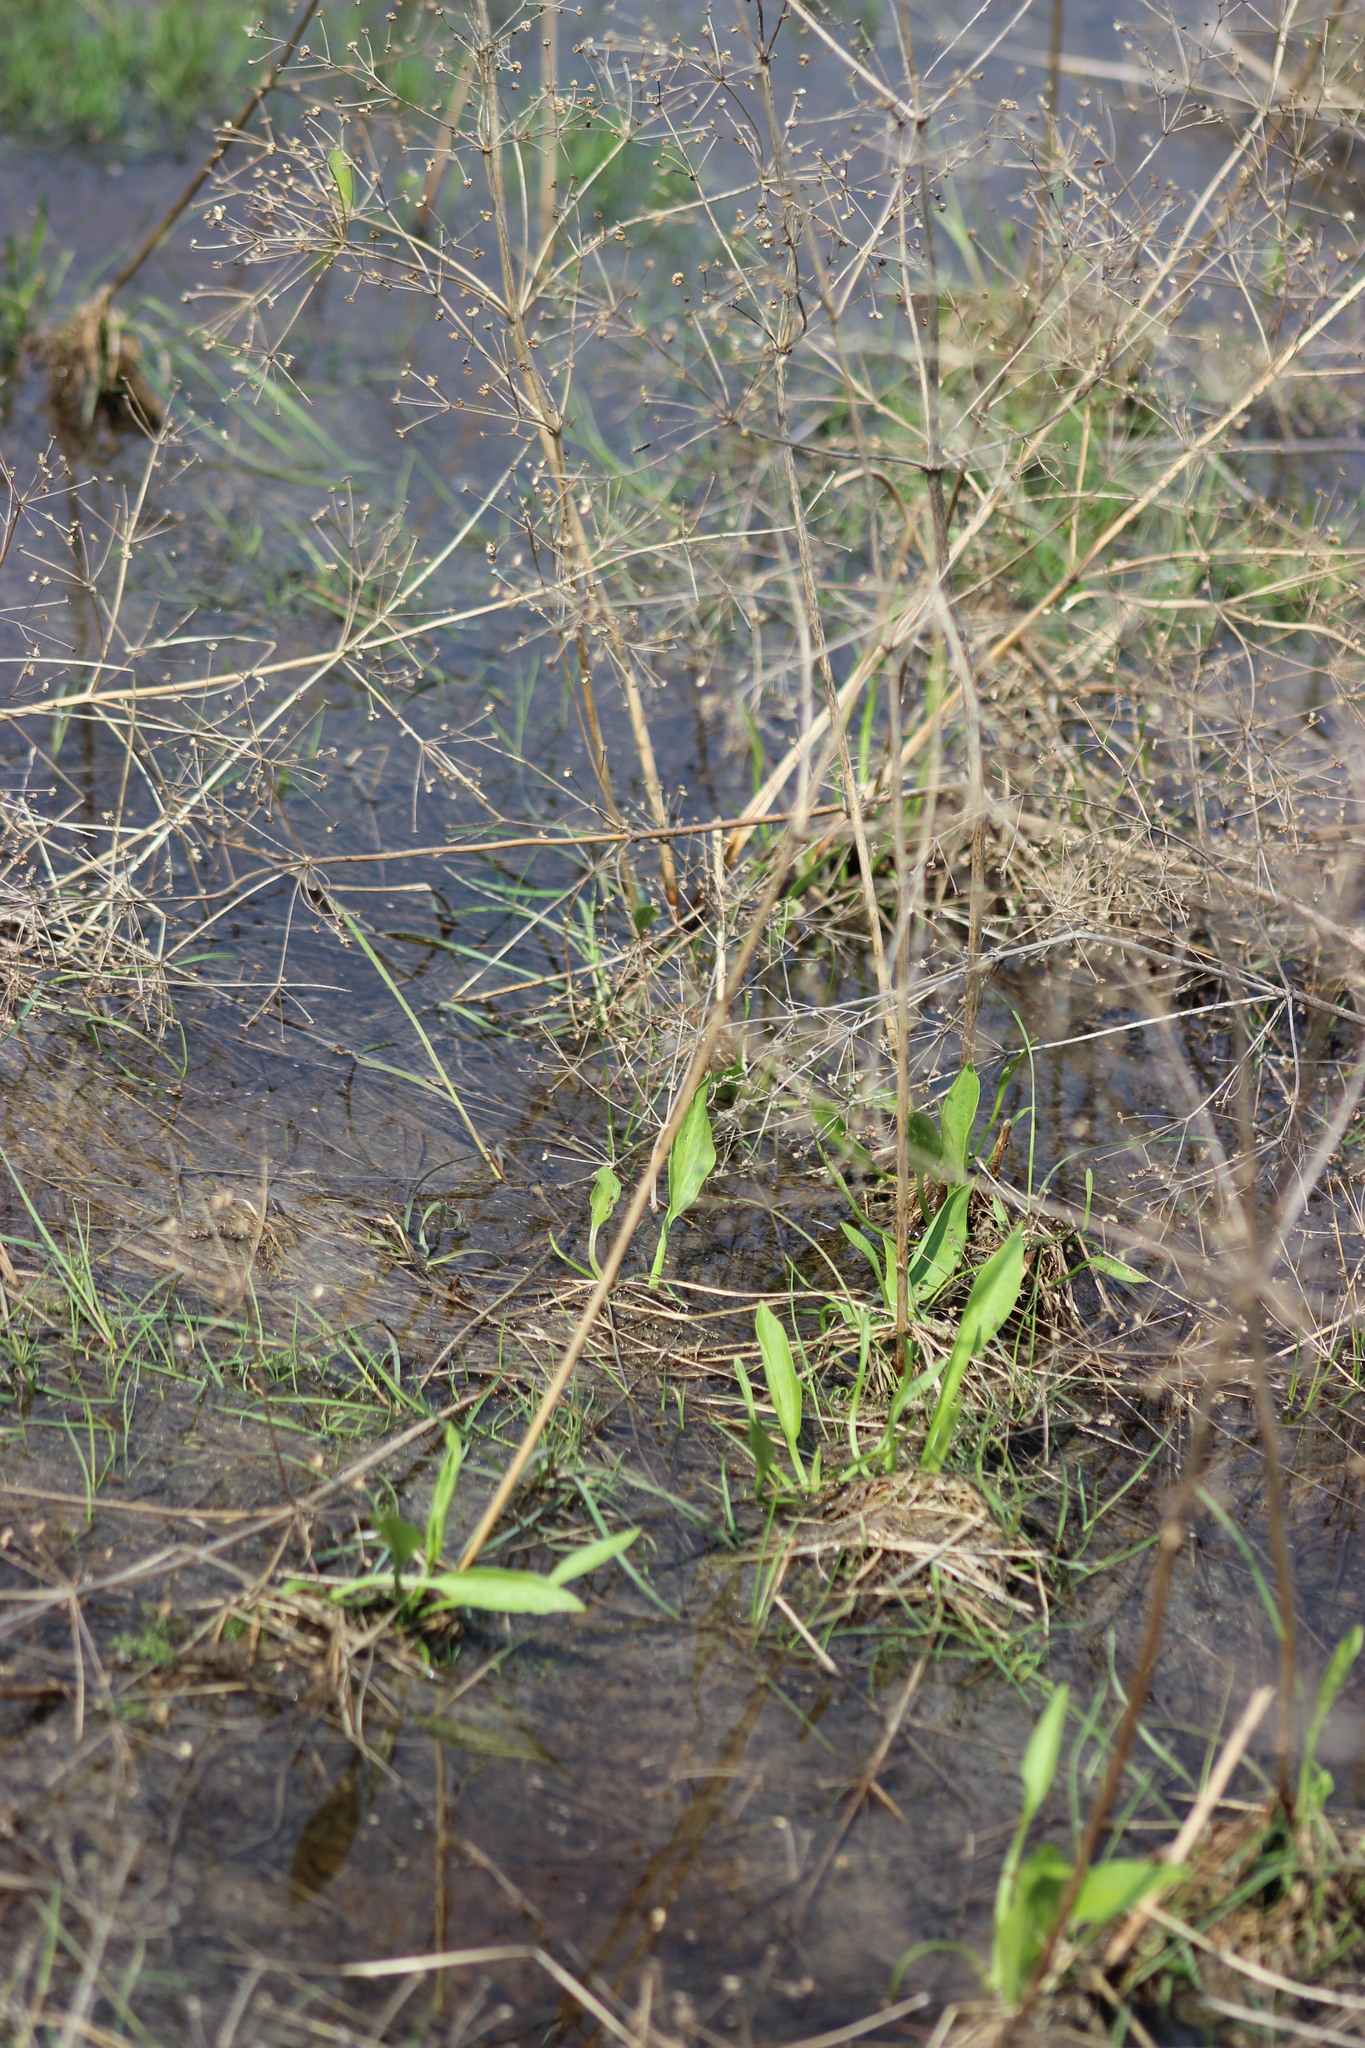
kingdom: Plantae
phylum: Tracheophyta
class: Liliopsida
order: Alismatales
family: Alismataceae
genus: Alisma
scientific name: Alisma plantago-aquatica
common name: Water-plantain
